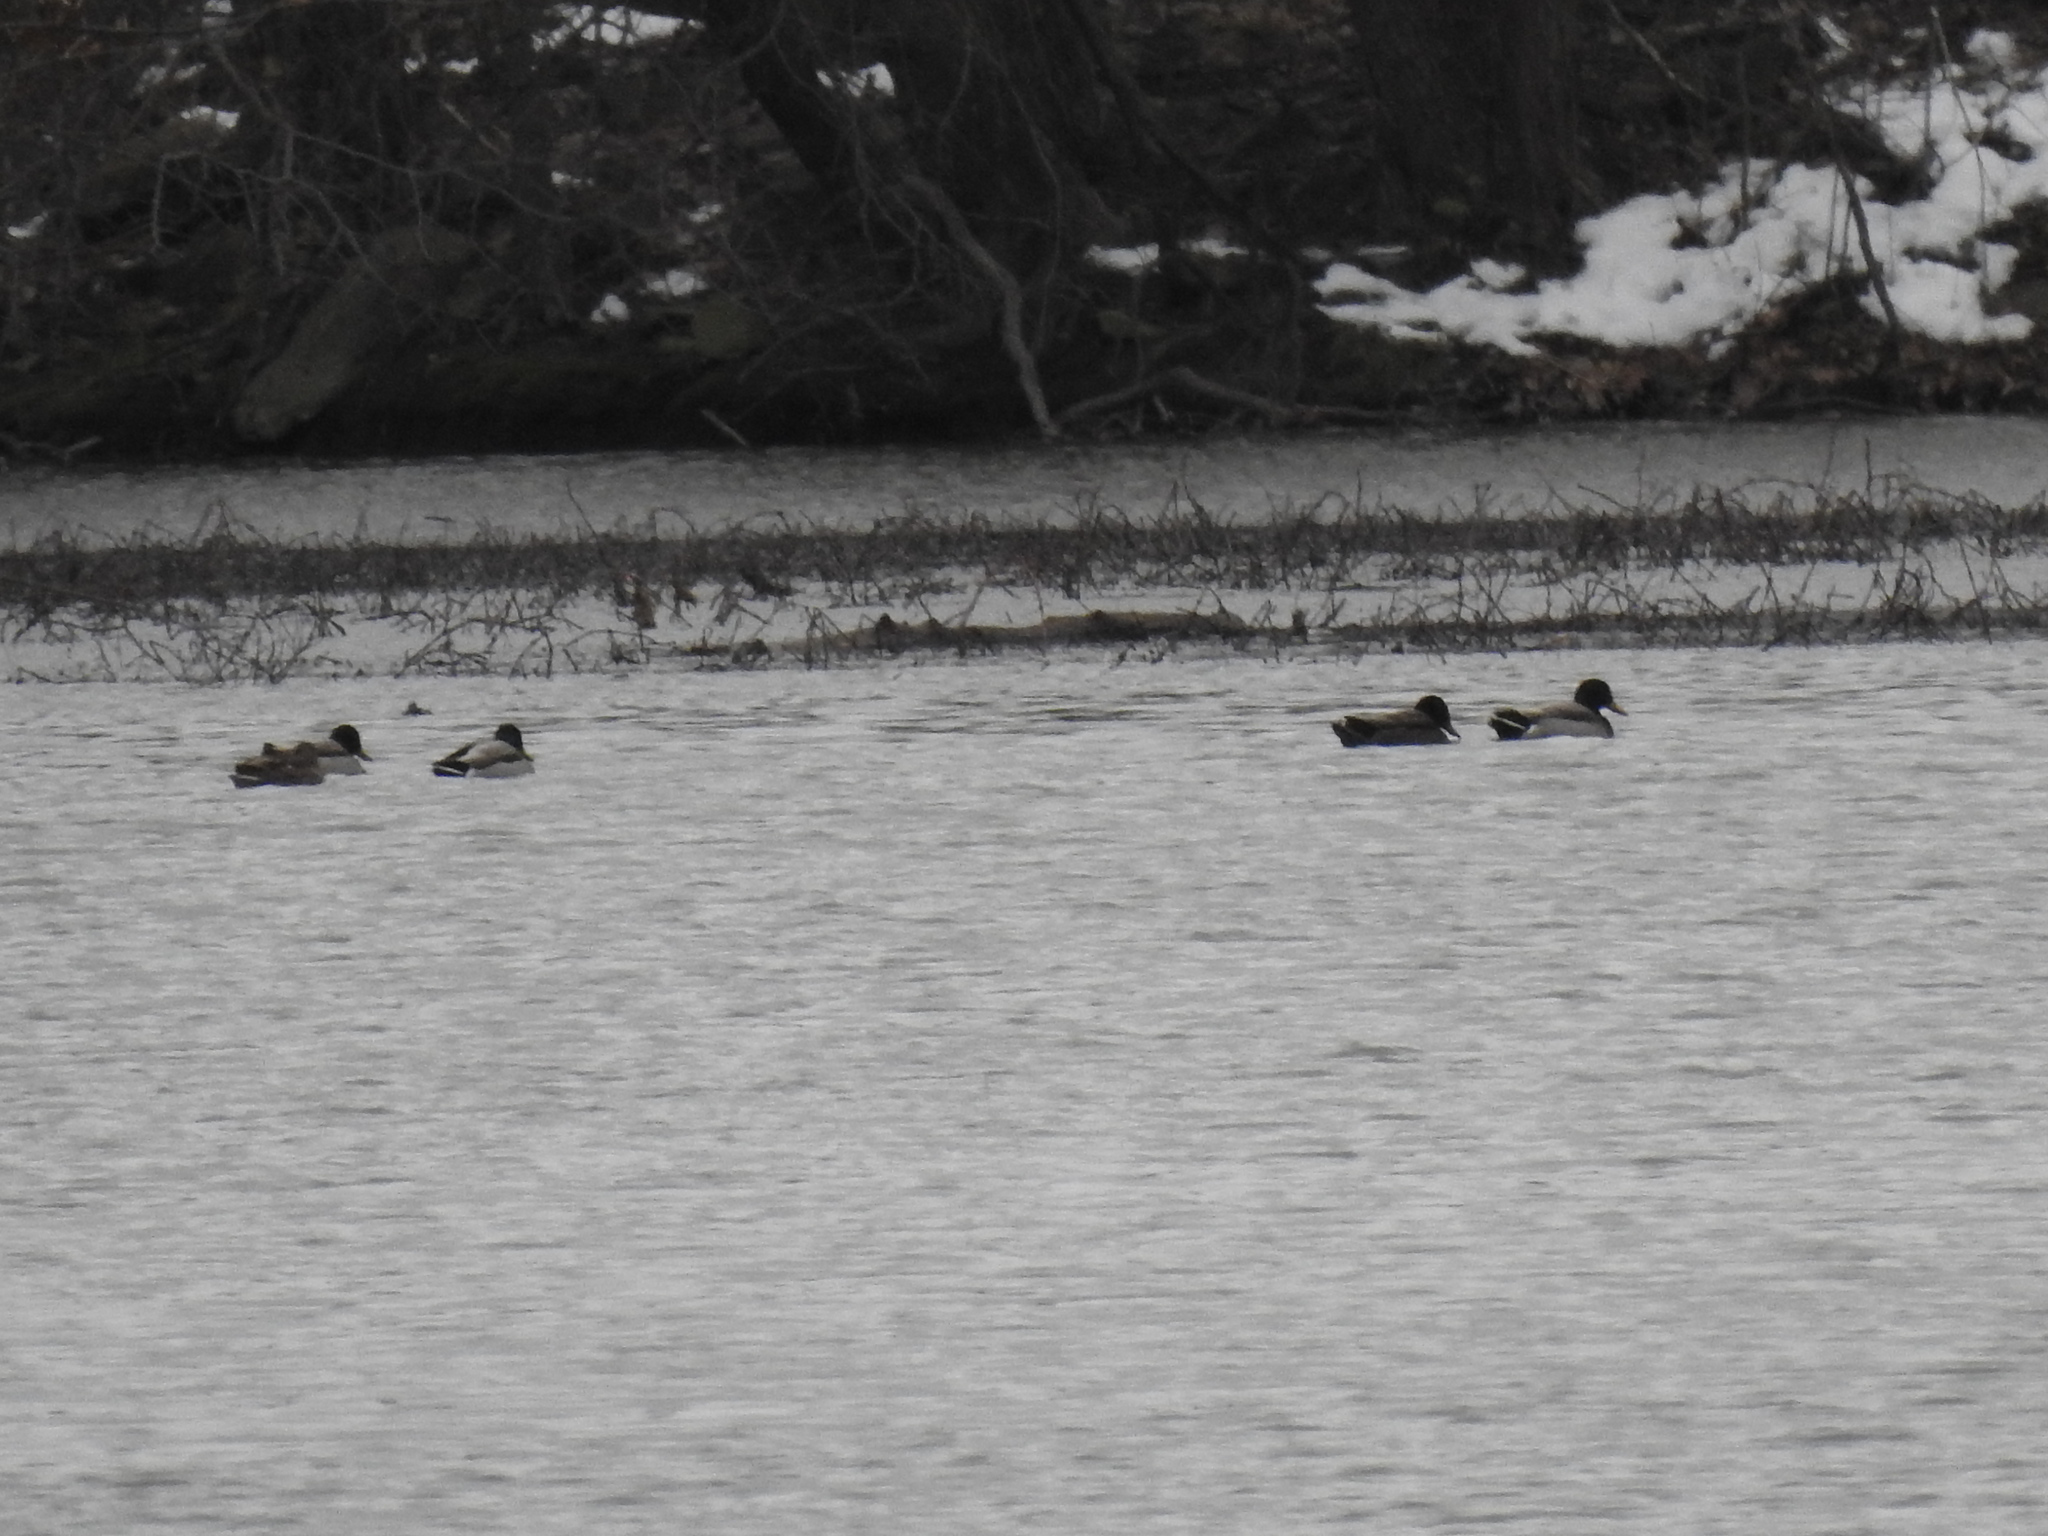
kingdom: Animalia
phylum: Chordata
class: Aves
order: Anseriformes
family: Anatidae
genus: Anas
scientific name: Anas platyrhynchos
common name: Mallard
